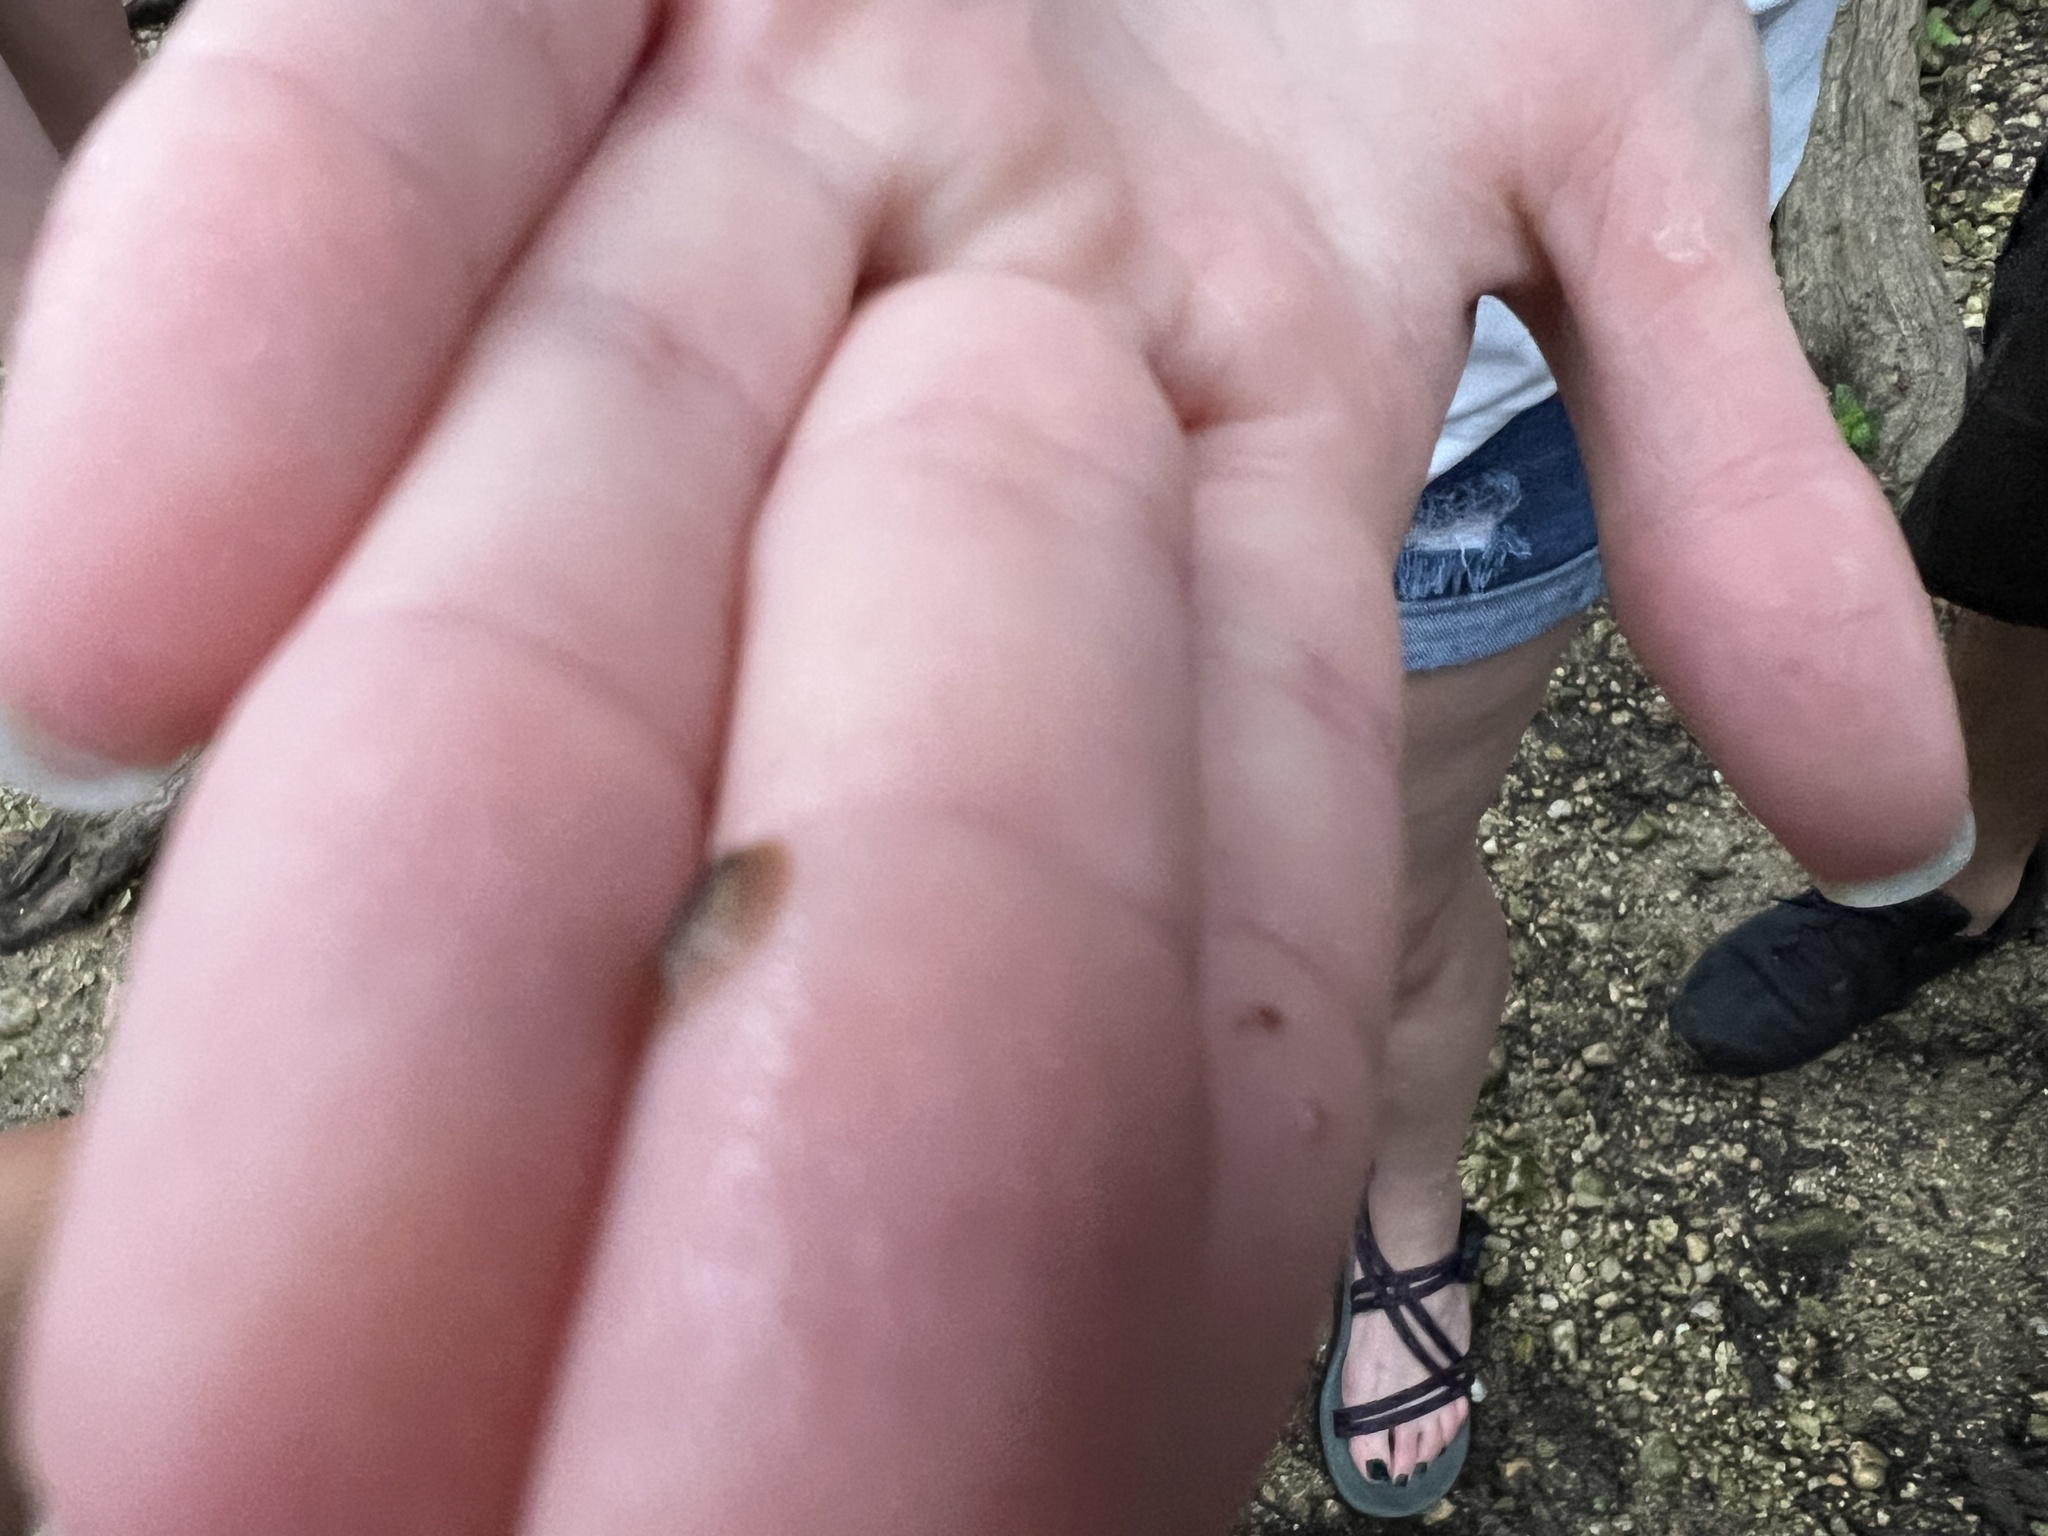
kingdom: Animalia
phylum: Arthropoda
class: Insecta
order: Coleoptera
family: Psephenidae
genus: Psephenus
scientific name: Psephenus texanus
